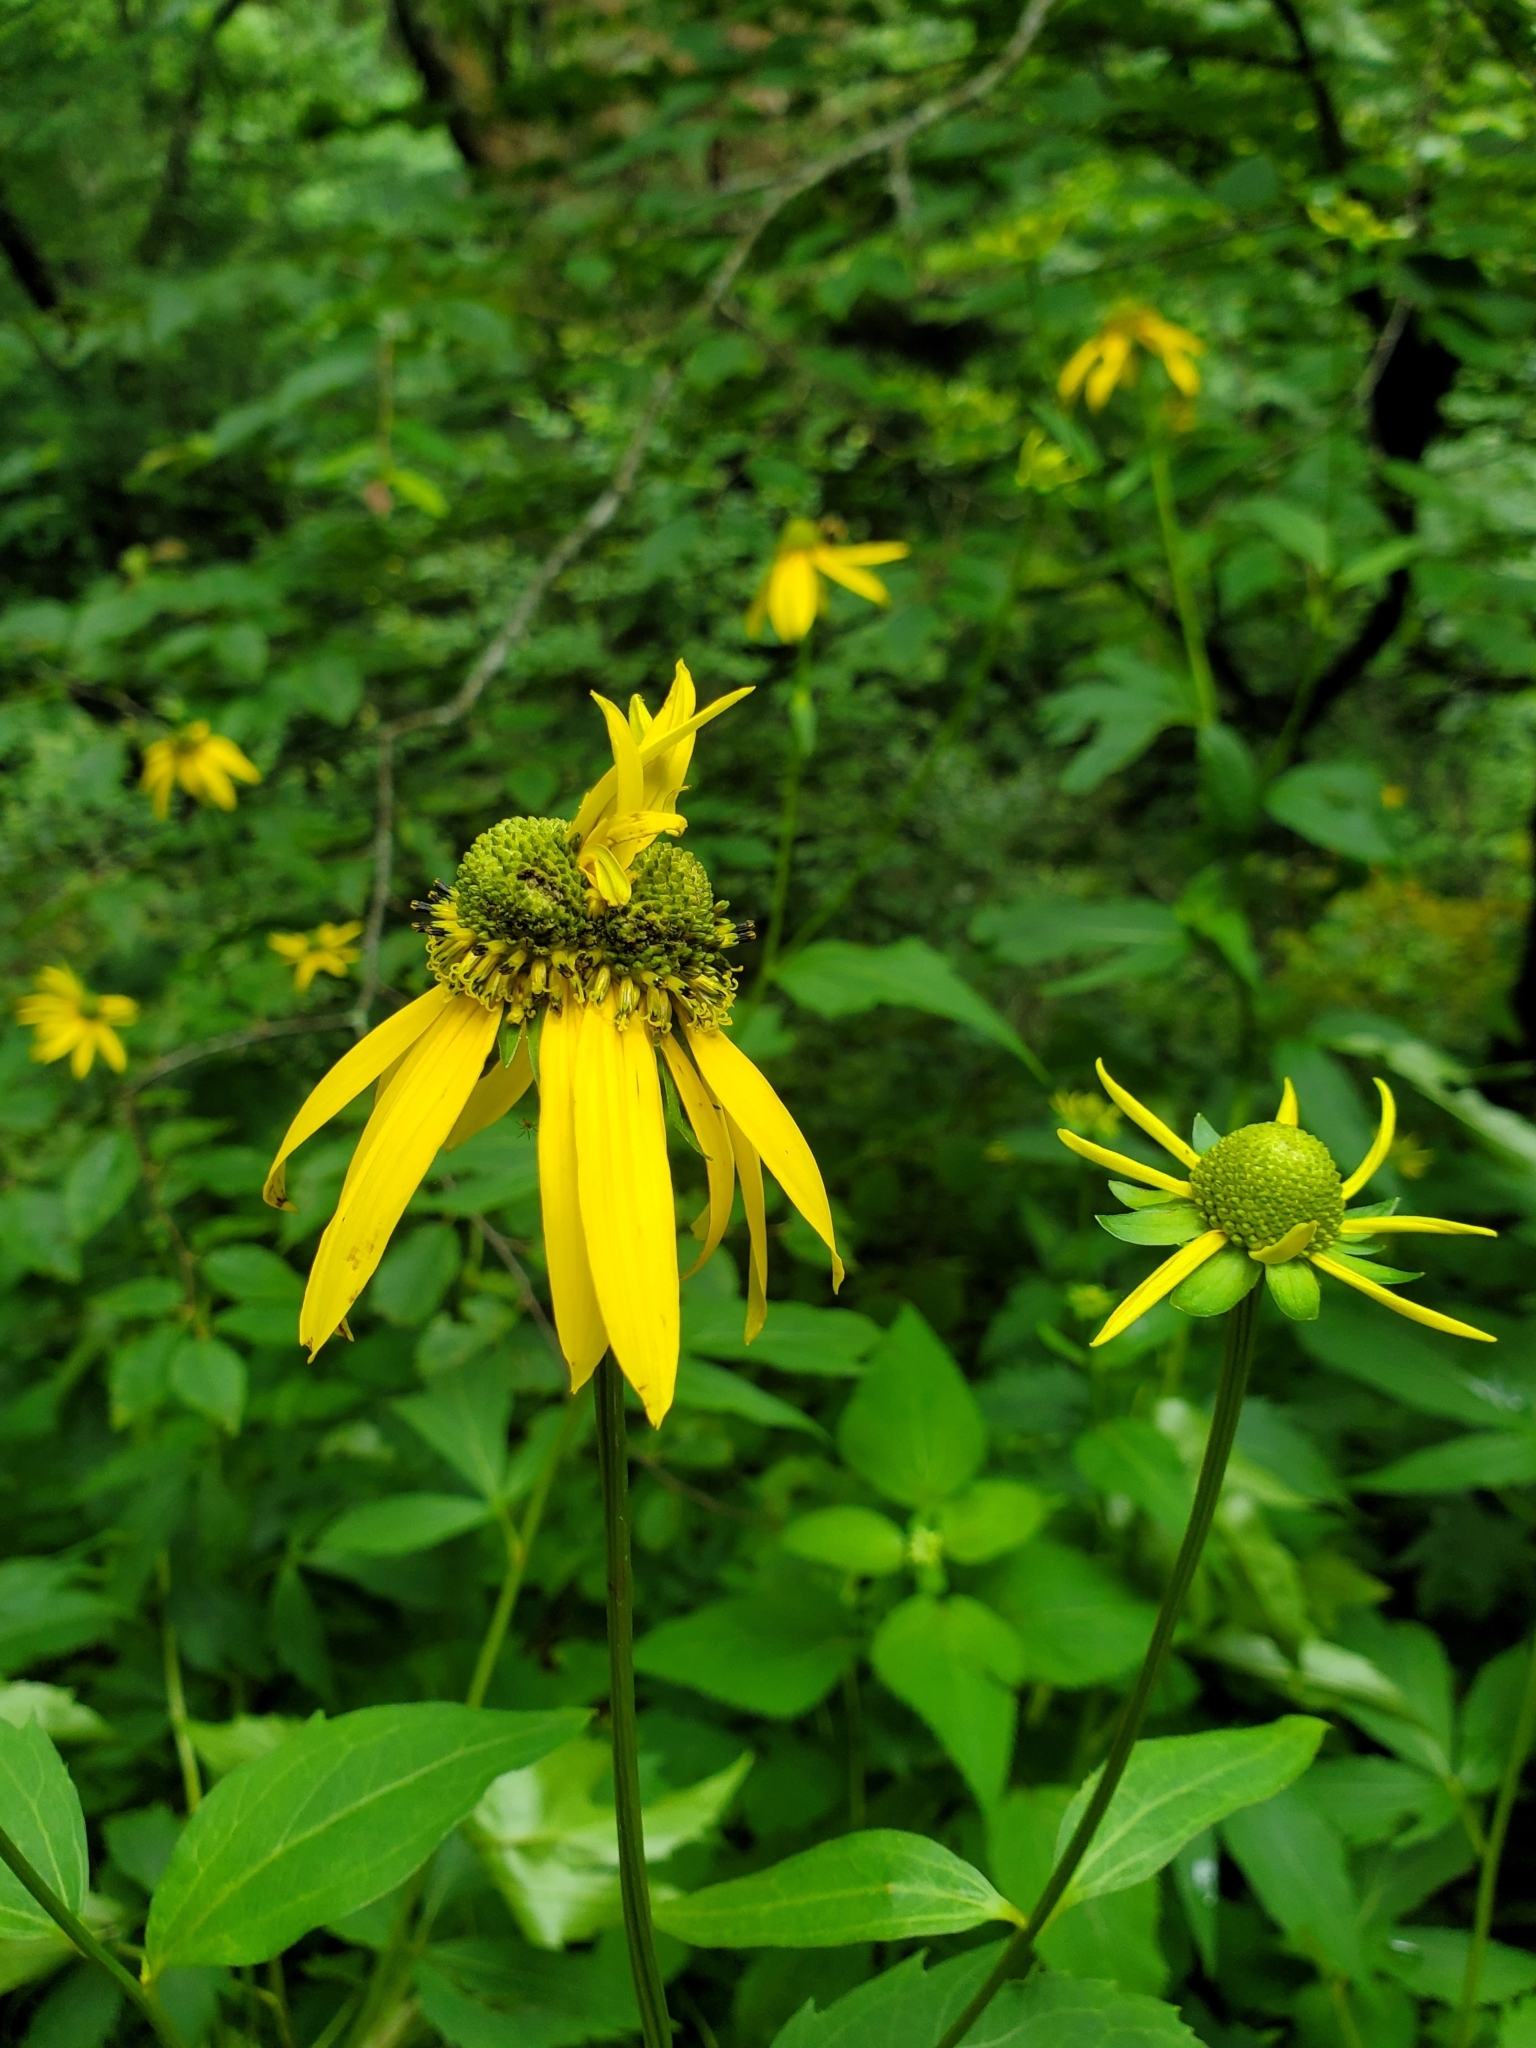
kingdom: Plantae
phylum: Tracheophyta
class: Magnoliopsida
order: Asterales
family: Asteraceae
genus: Rudbeckia
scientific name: Rudbeckia laciniata
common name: Coneflower
